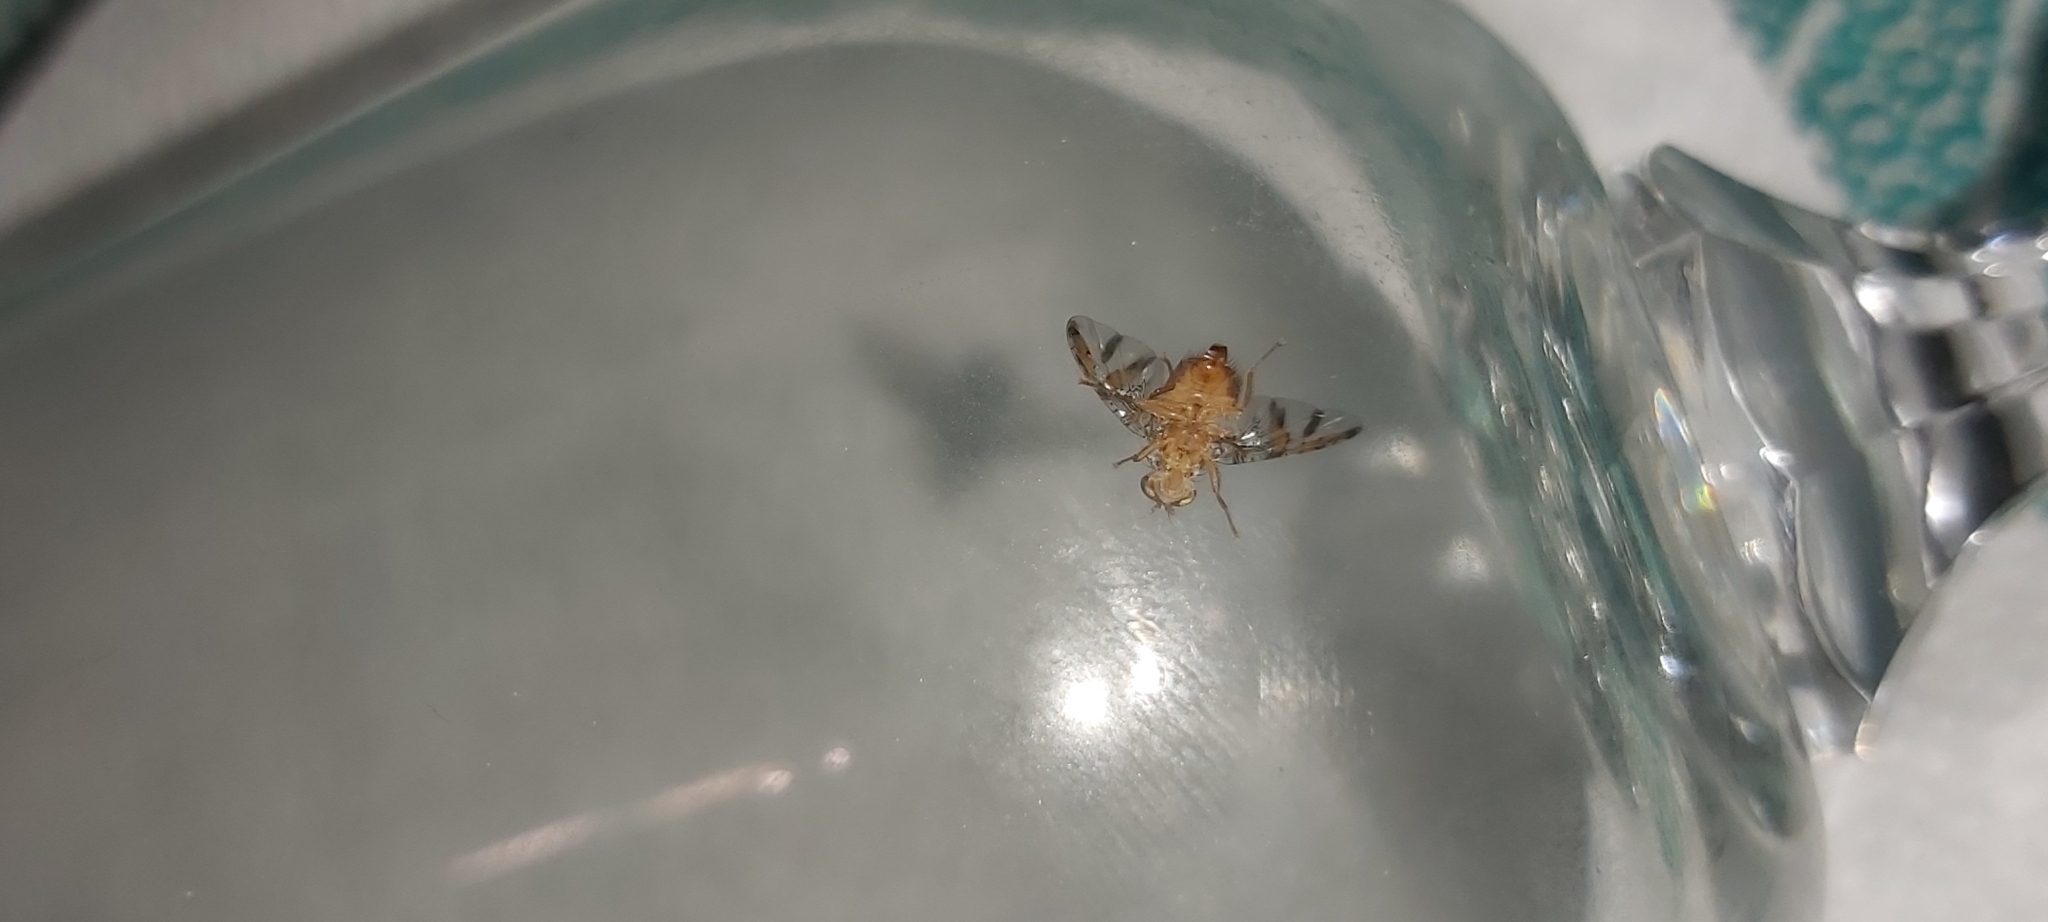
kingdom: Animalia
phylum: Arthropoda
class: Insecta
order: Diptera
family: Tephritidae
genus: Ceratitis
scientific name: Ceratitis capitata
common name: Mediterranean fruit fly
